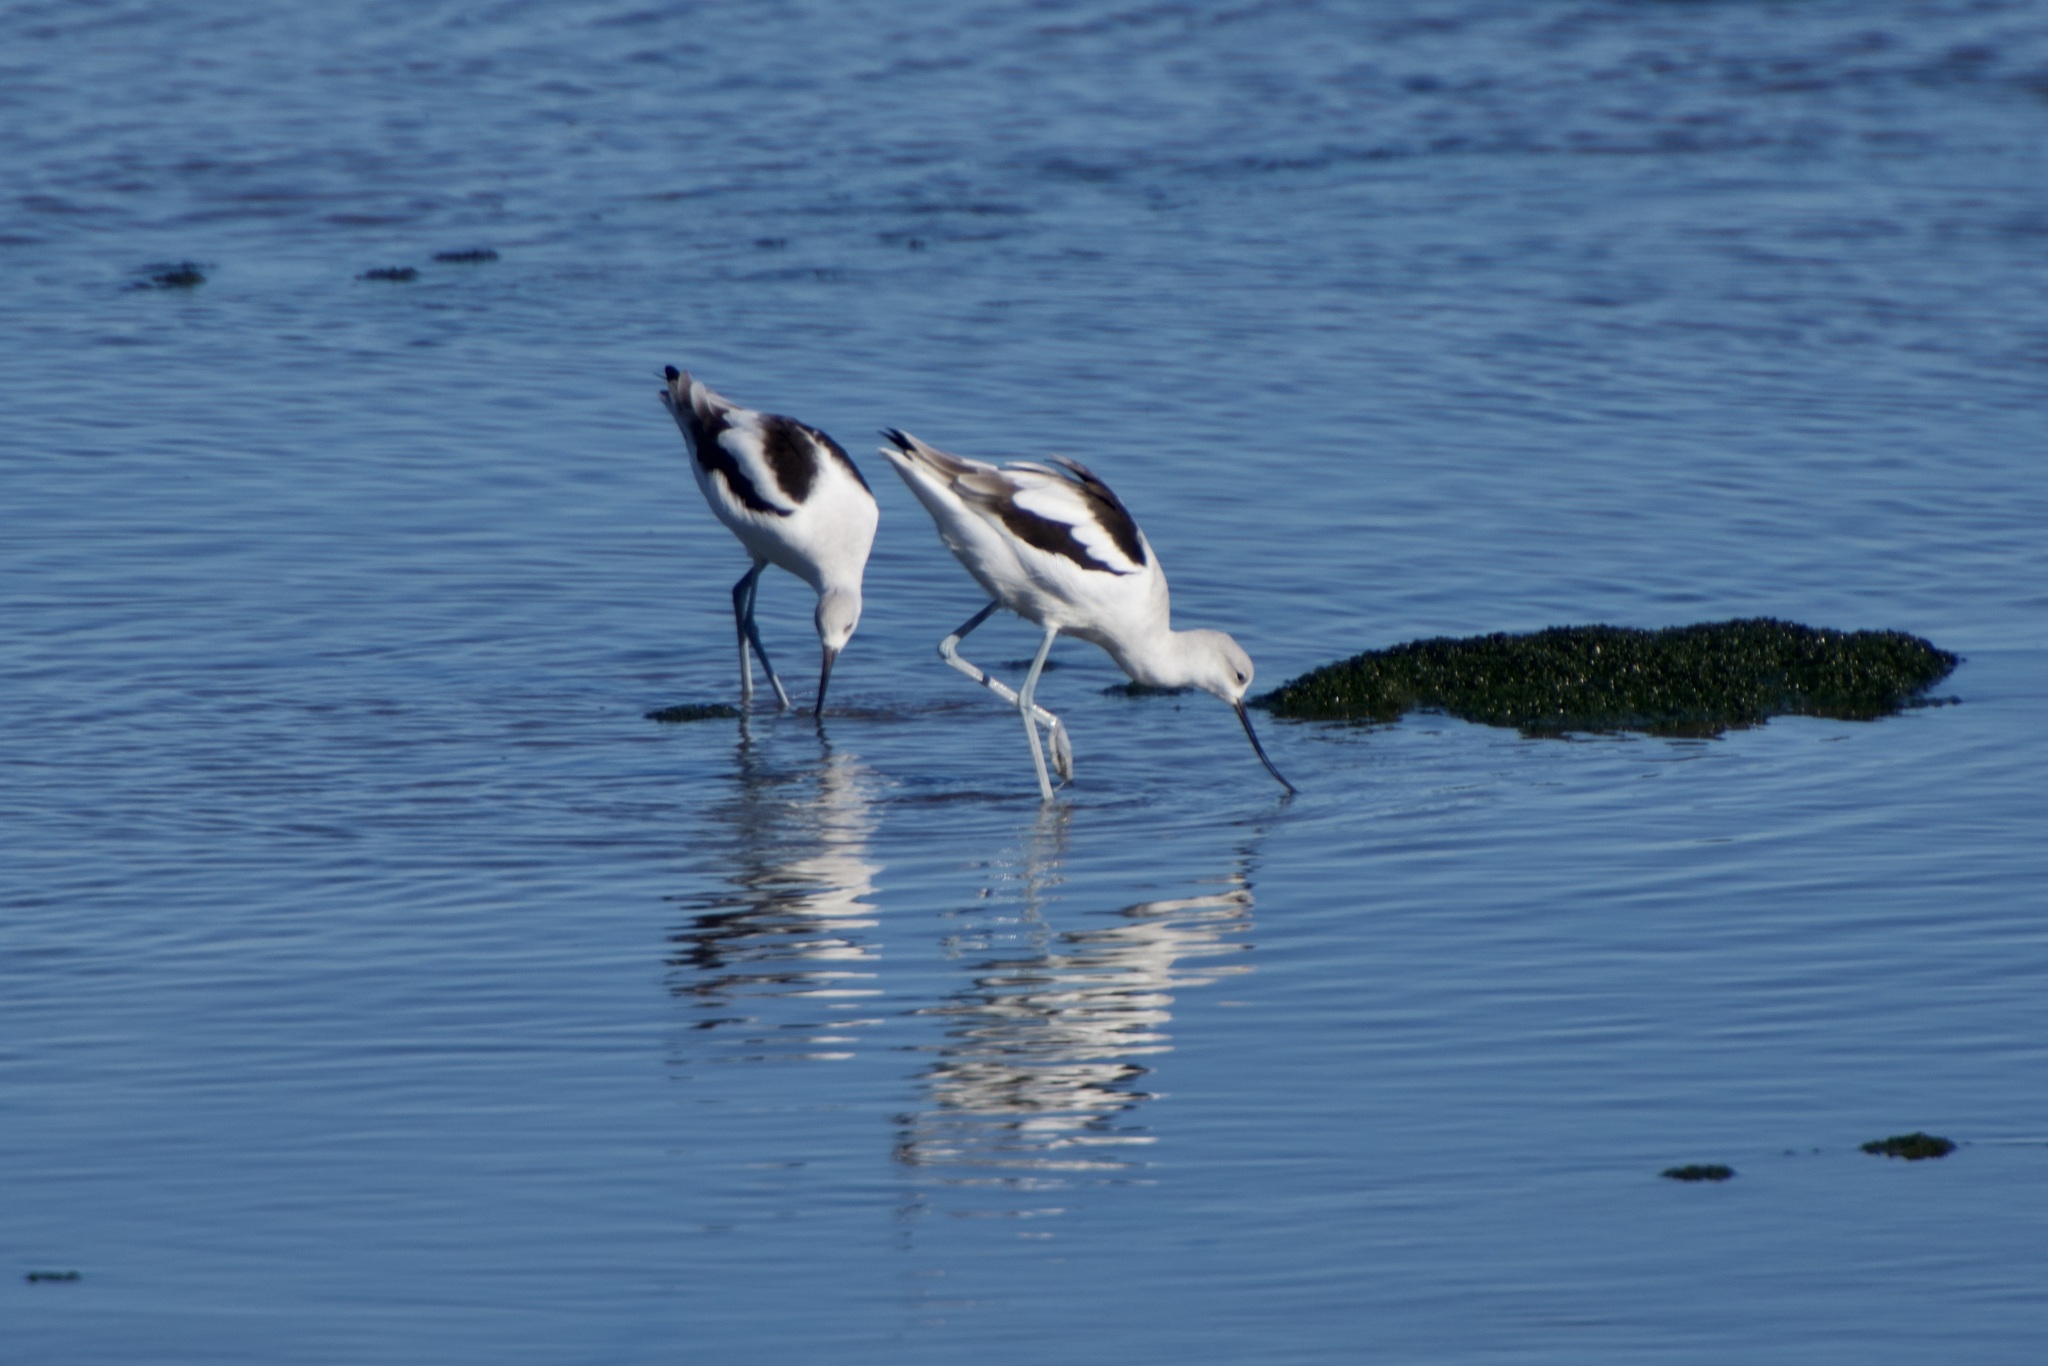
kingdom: Animalia
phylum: Chordata
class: Aves
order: Charadriiformes
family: Recurvirostridae
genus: Recurvirostra
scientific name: Recurvirostra americana
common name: American avocet
